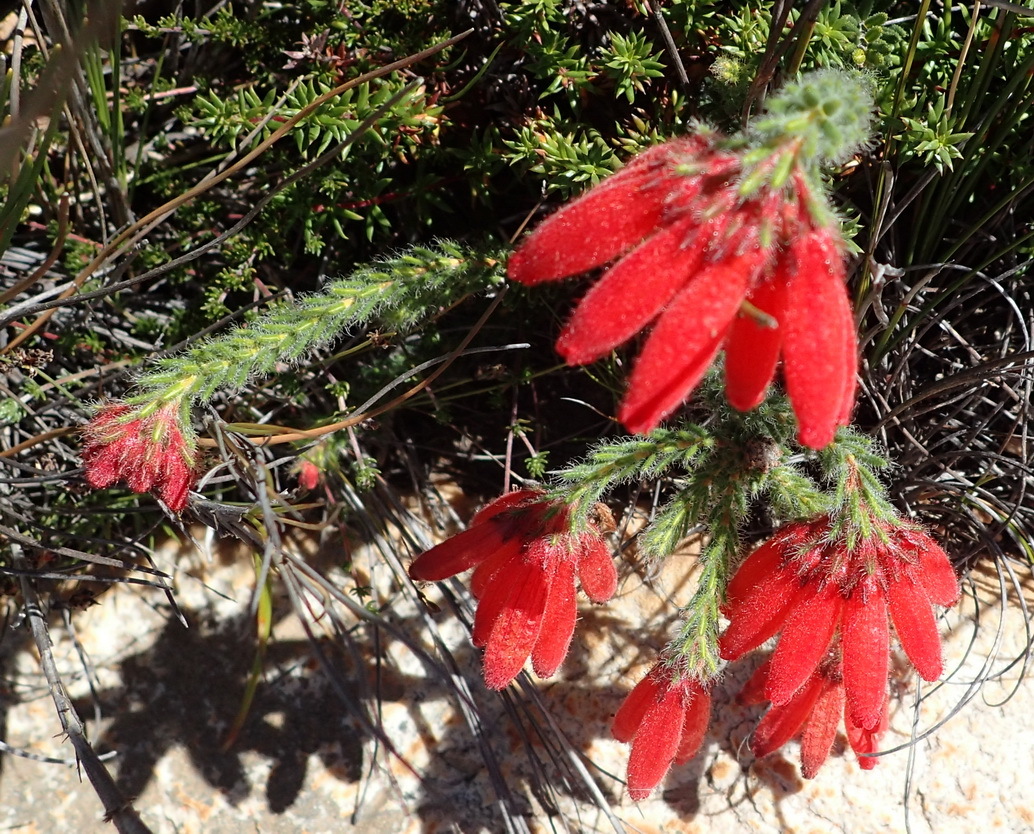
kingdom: Plantae
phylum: Tracheophyta
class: Magnoliopsida
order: Ericales
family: Ericaceae
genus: Erica
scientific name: Erica cerinthoides
